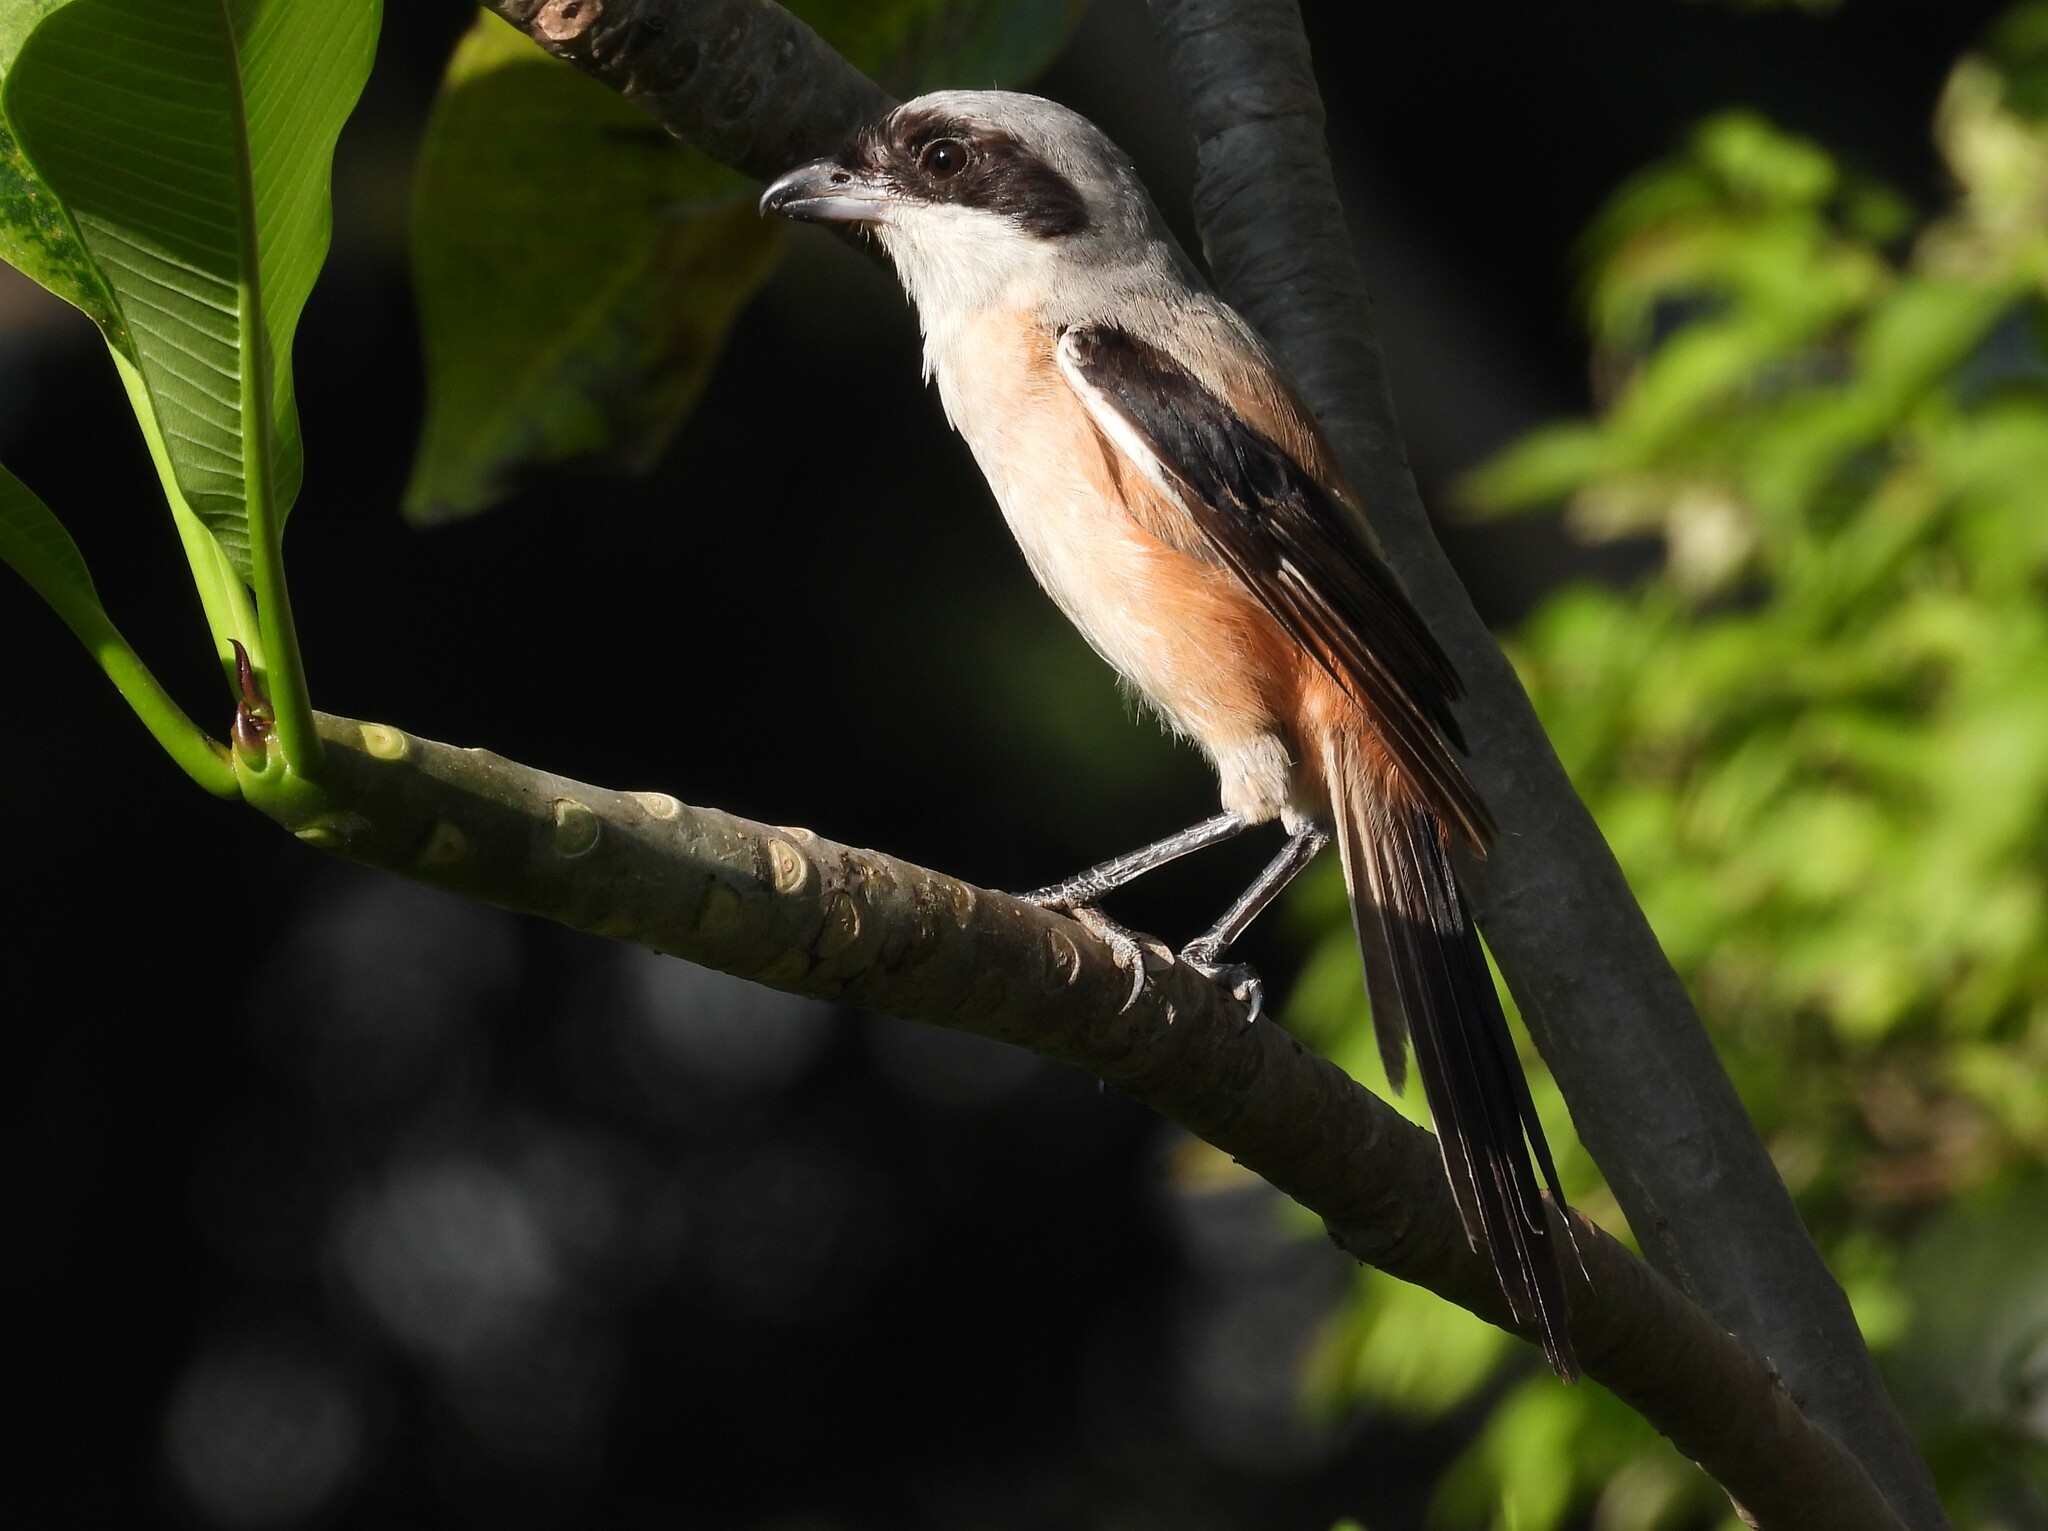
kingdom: Animalia
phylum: Chordata
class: Aves
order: Passeriformes
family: Laniidae
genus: Lanius
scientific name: Lanius schach
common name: Long-tailed shrike
